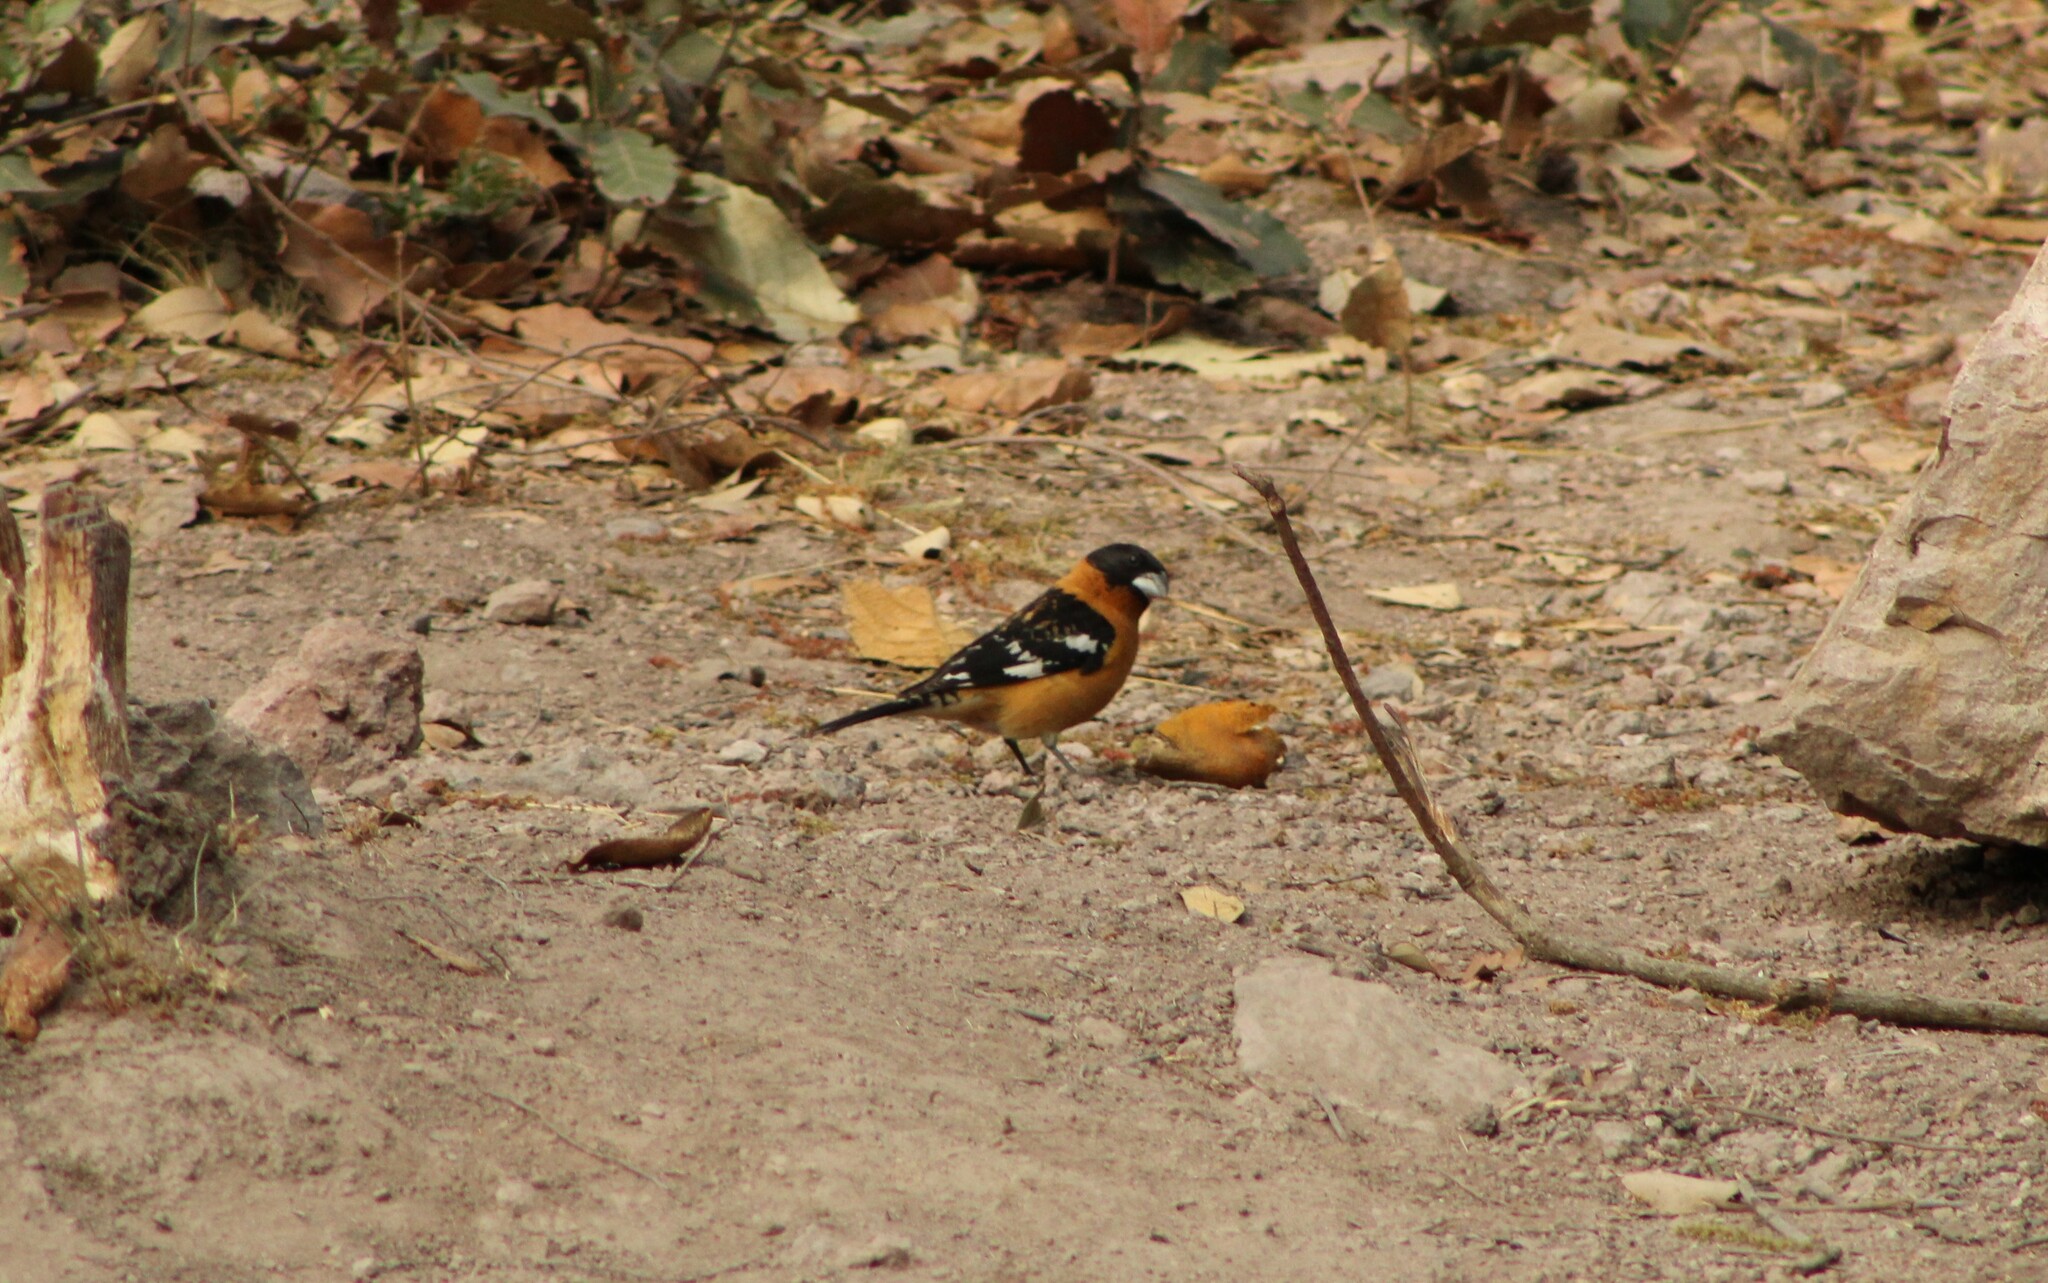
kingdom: Animalia
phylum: Chordata
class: Aves
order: Passeriformes
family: Cardinalidae
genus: Pheucticus
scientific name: Pheucticus melanocephalus
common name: Black-headed grosbeak
